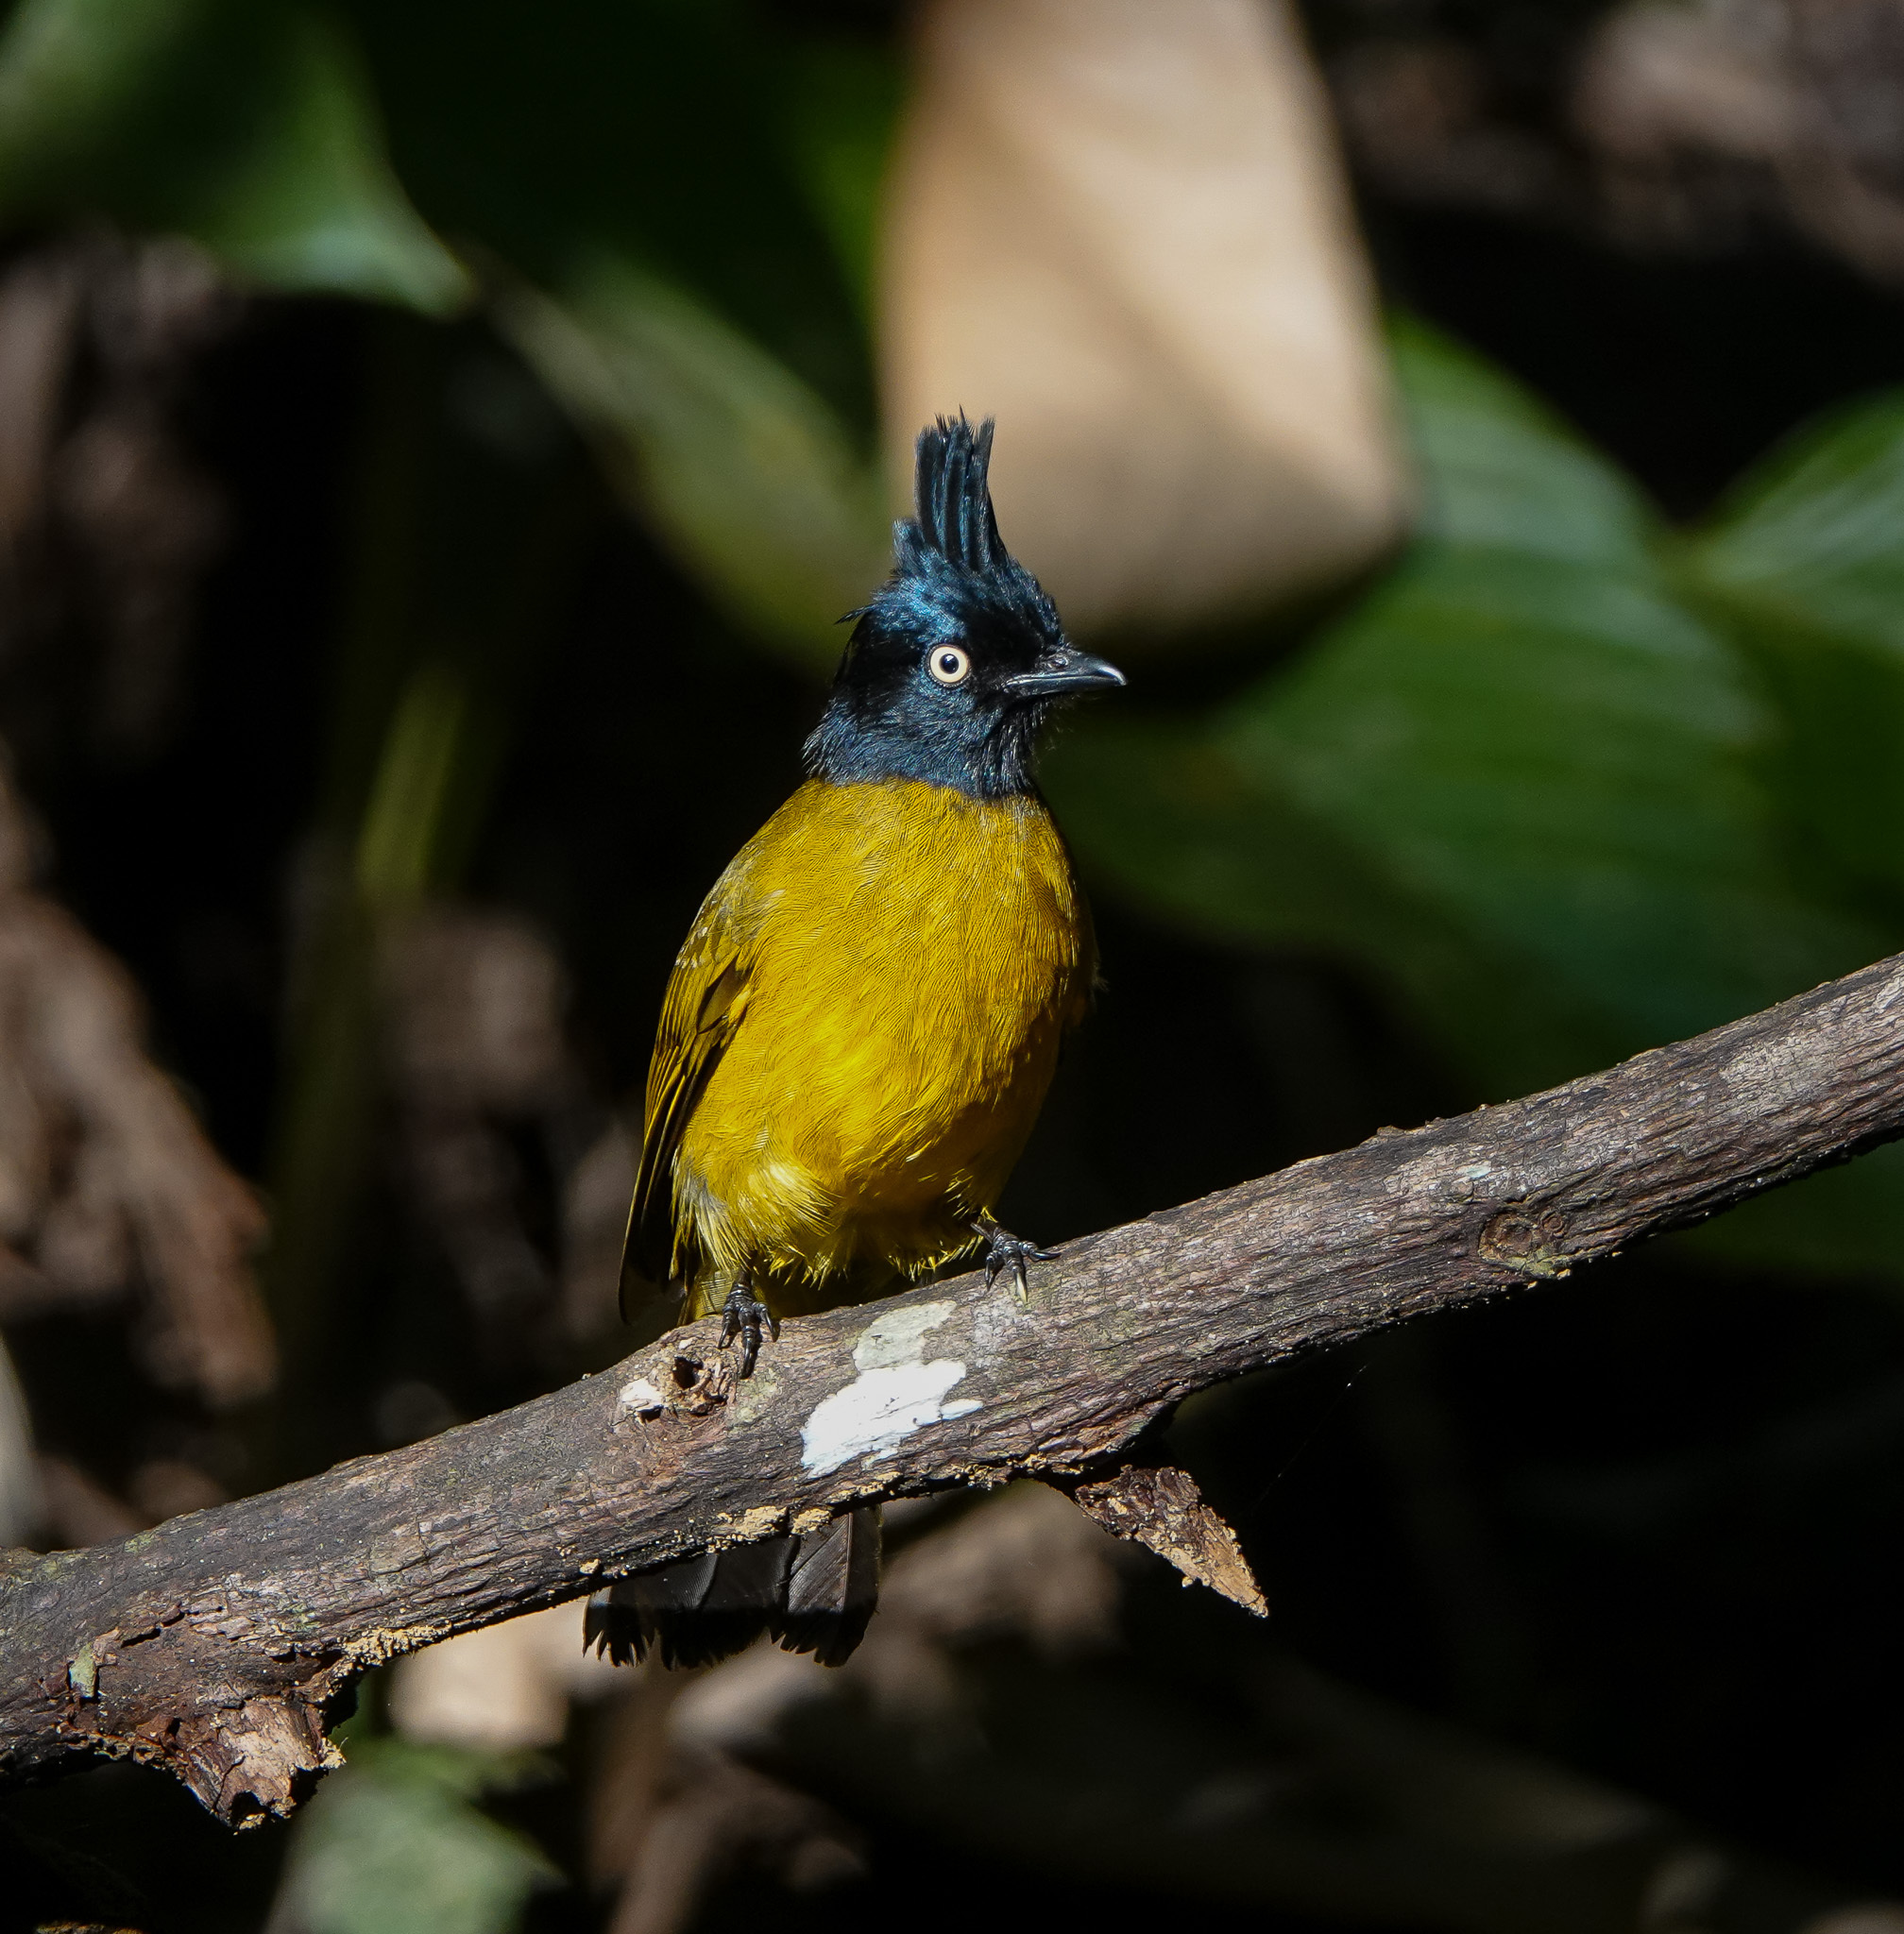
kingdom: Animalia
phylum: Chordata
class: Aves
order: Passeriformes
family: Pycnonotidae
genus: Pycnonotus
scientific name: Pycnonotus flaviventris
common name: Black-crested bulbul
